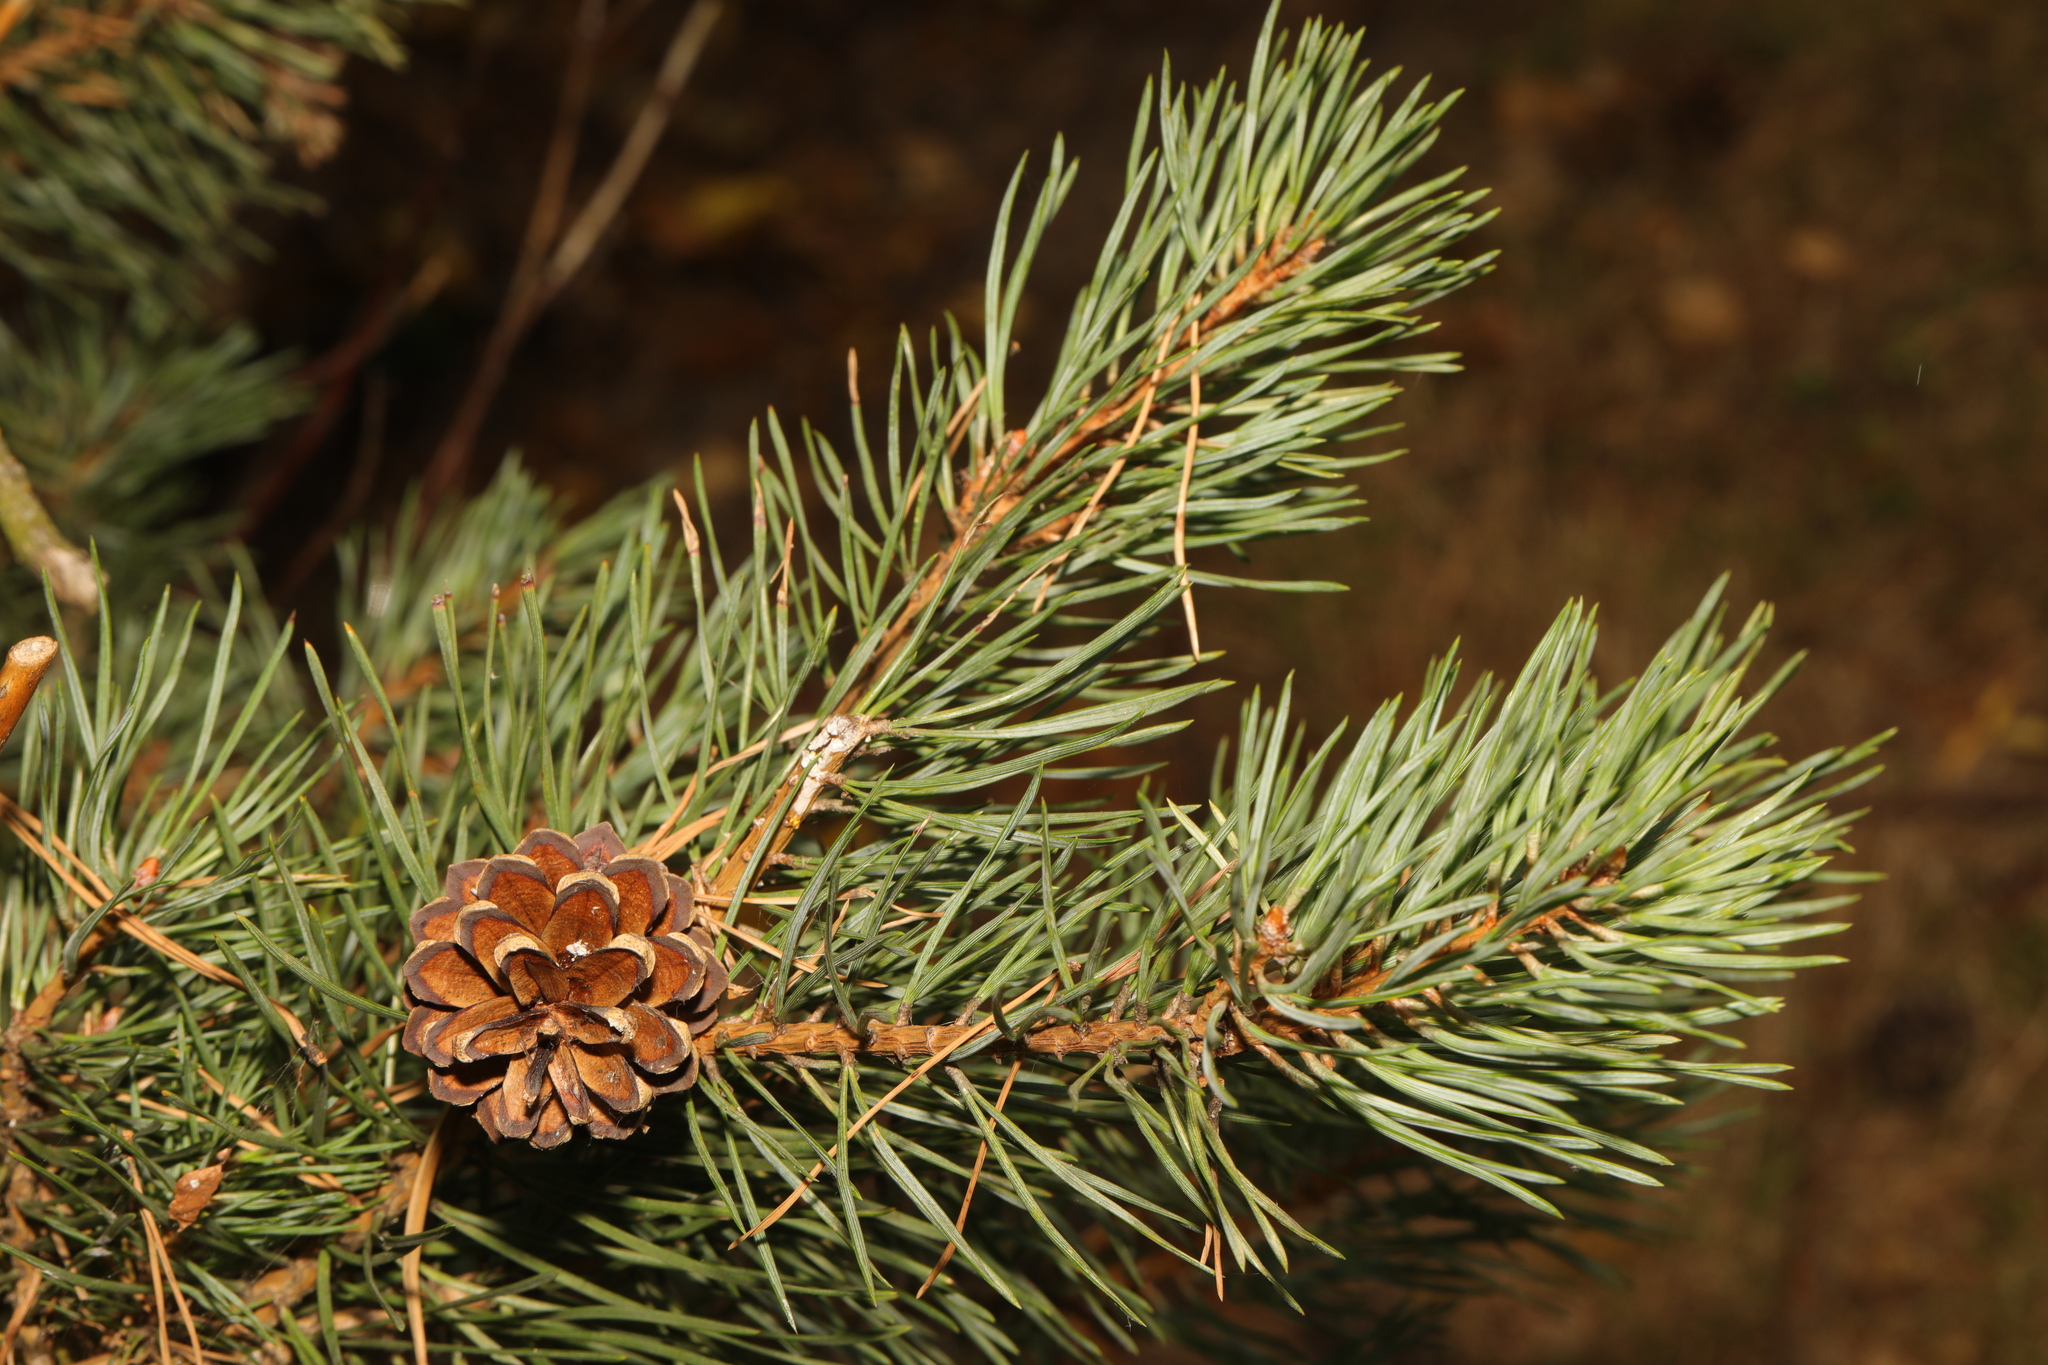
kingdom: Plantae
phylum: Tracheophyta
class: Pinopsida
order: Pinales
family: Pinaceae
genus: Pinus
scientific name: Pinus sylvestris
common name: Scots pine
